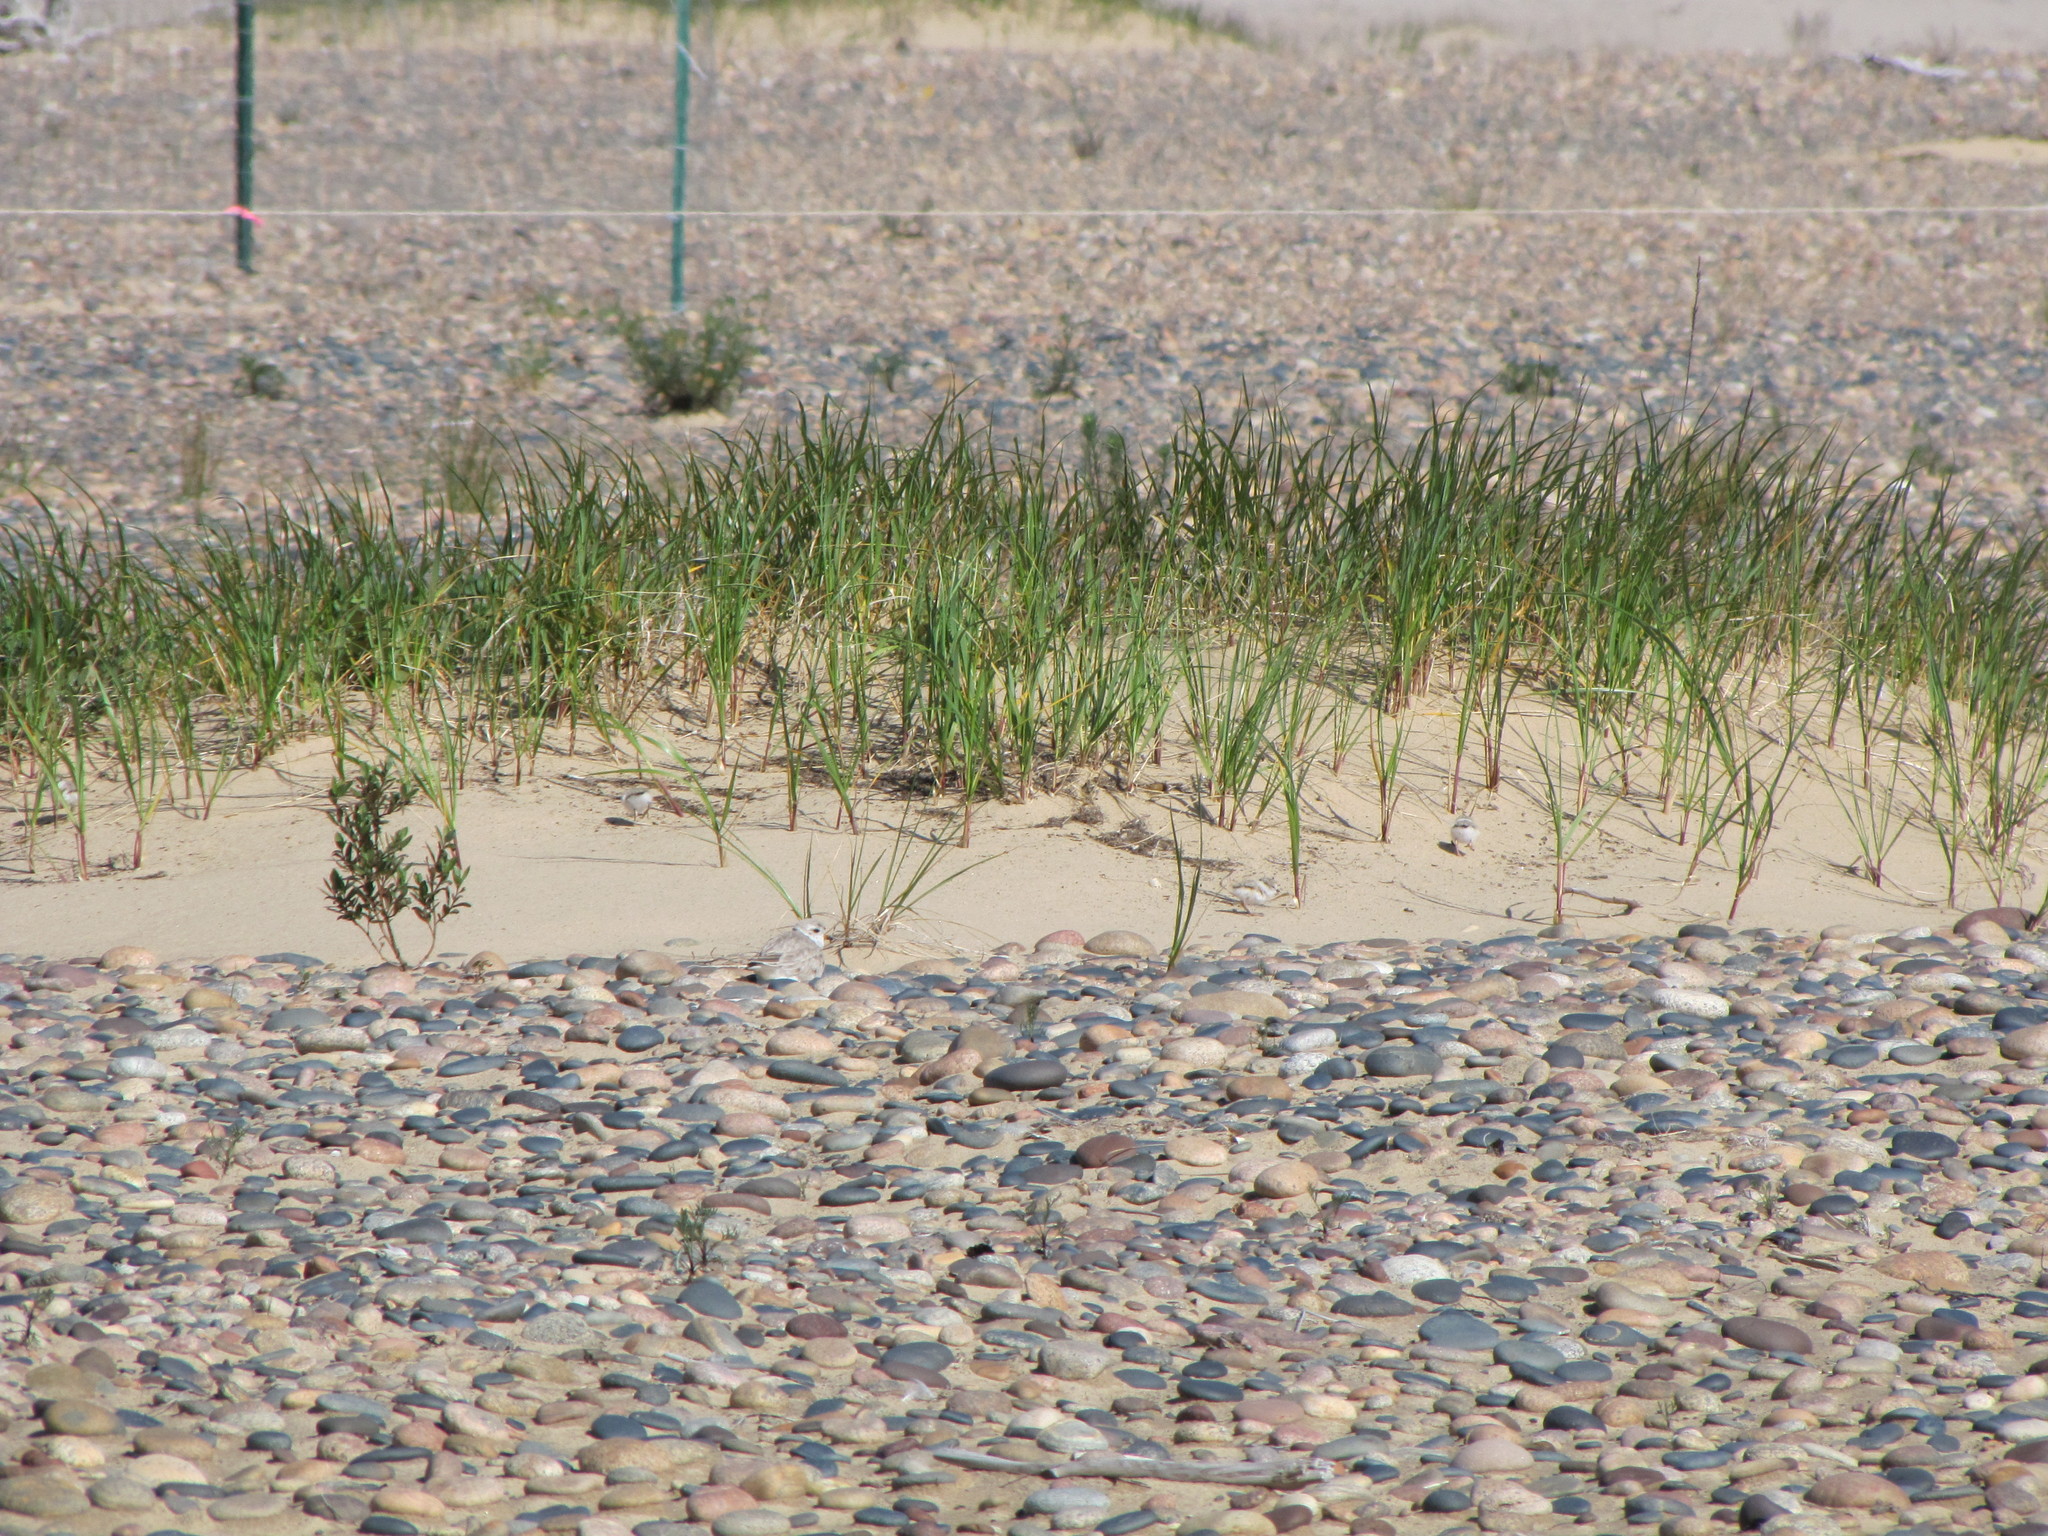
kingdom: Animalia
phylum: Chordata
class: Aves
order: Charadriiformes
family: Charadriidae
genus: Charadrius
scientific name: Charadrius melodus
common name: Piping plover
